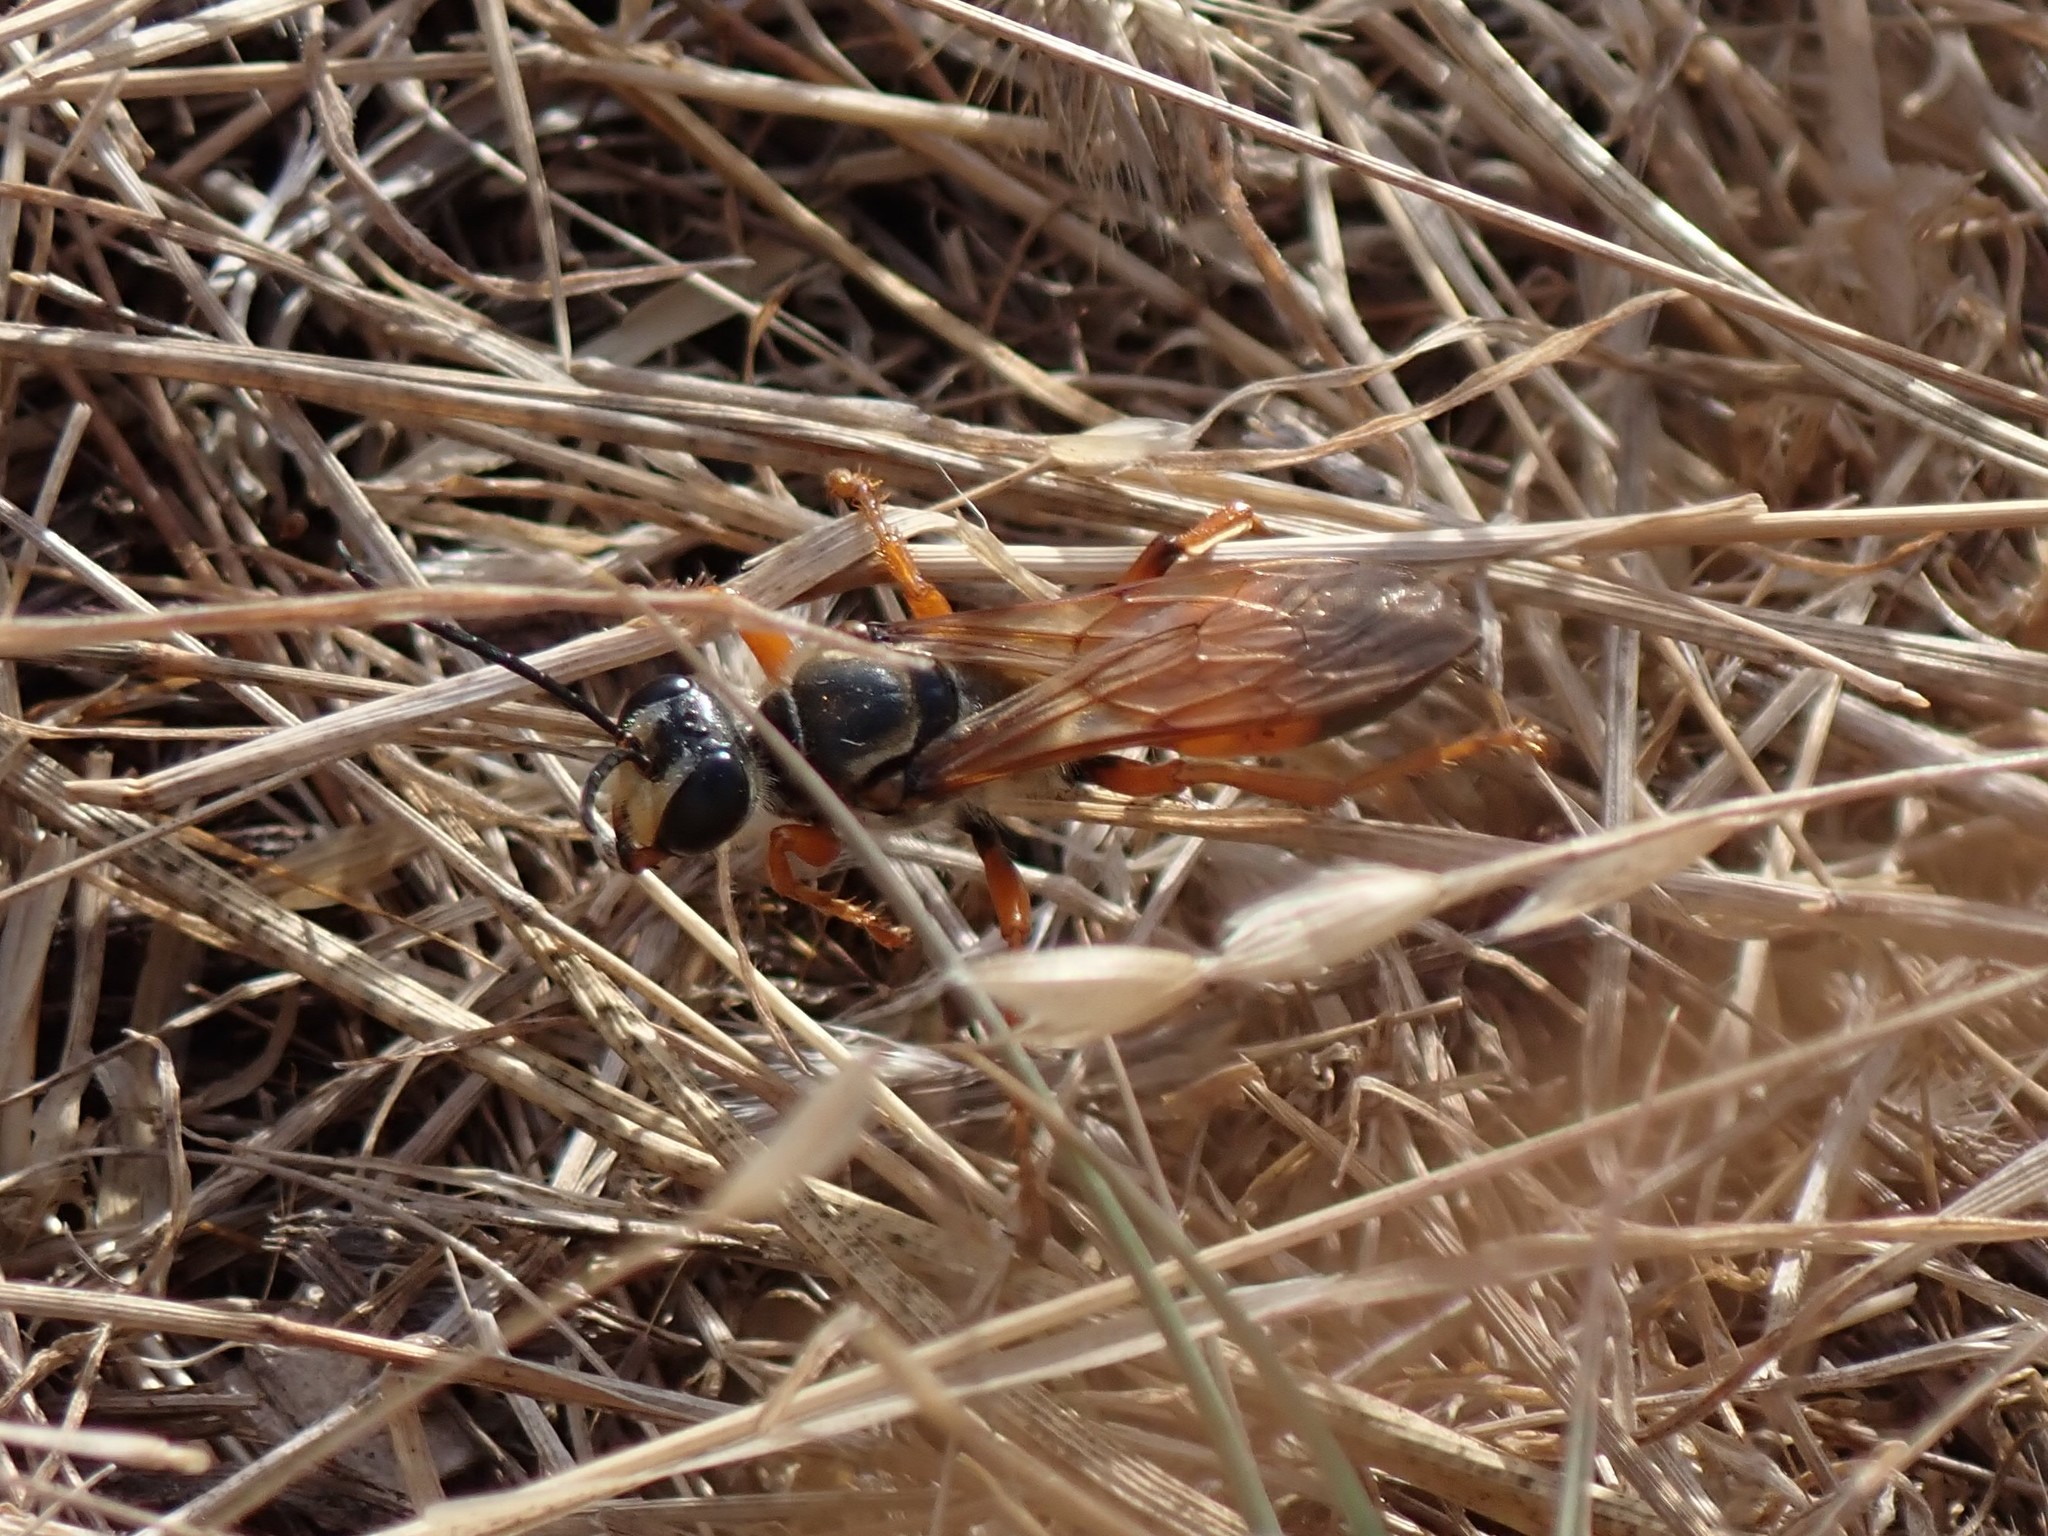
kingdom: Animalia
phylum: Arthropoda
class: Insecta
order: Hymenoptera
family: Sphecidae
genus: Sphex
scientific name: Sphex ichneumoneus
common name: Great golden digger wasp
